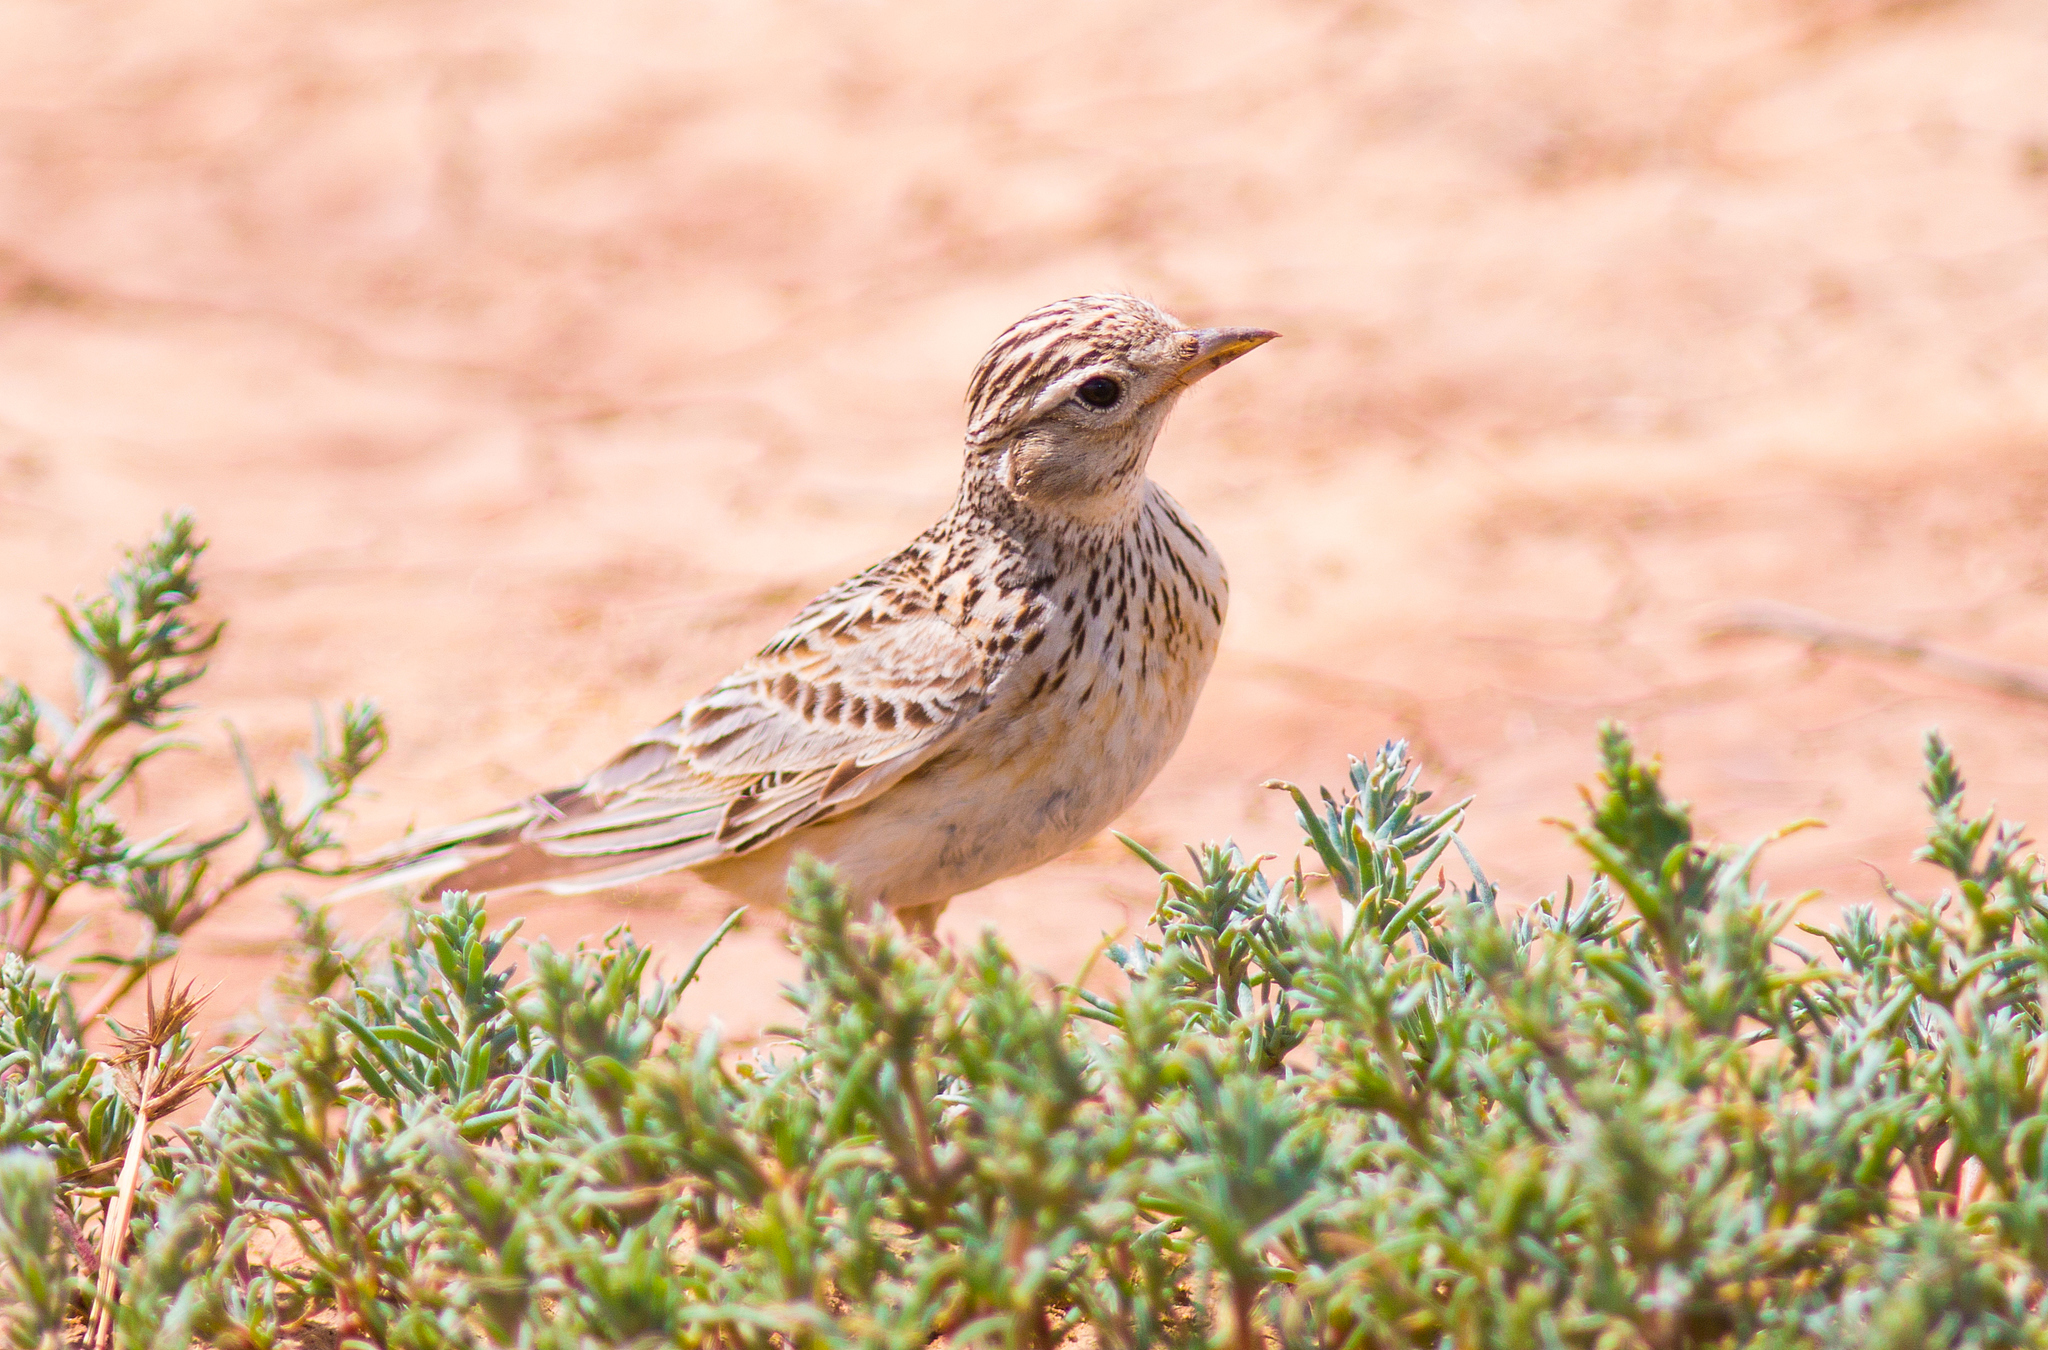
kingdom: Animalia
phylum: Chordata
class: Aves
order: Passeriformes
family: Alaudidae
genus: Calandrella
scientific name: Calandrella rufescens
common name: Lesser short-toed lark
